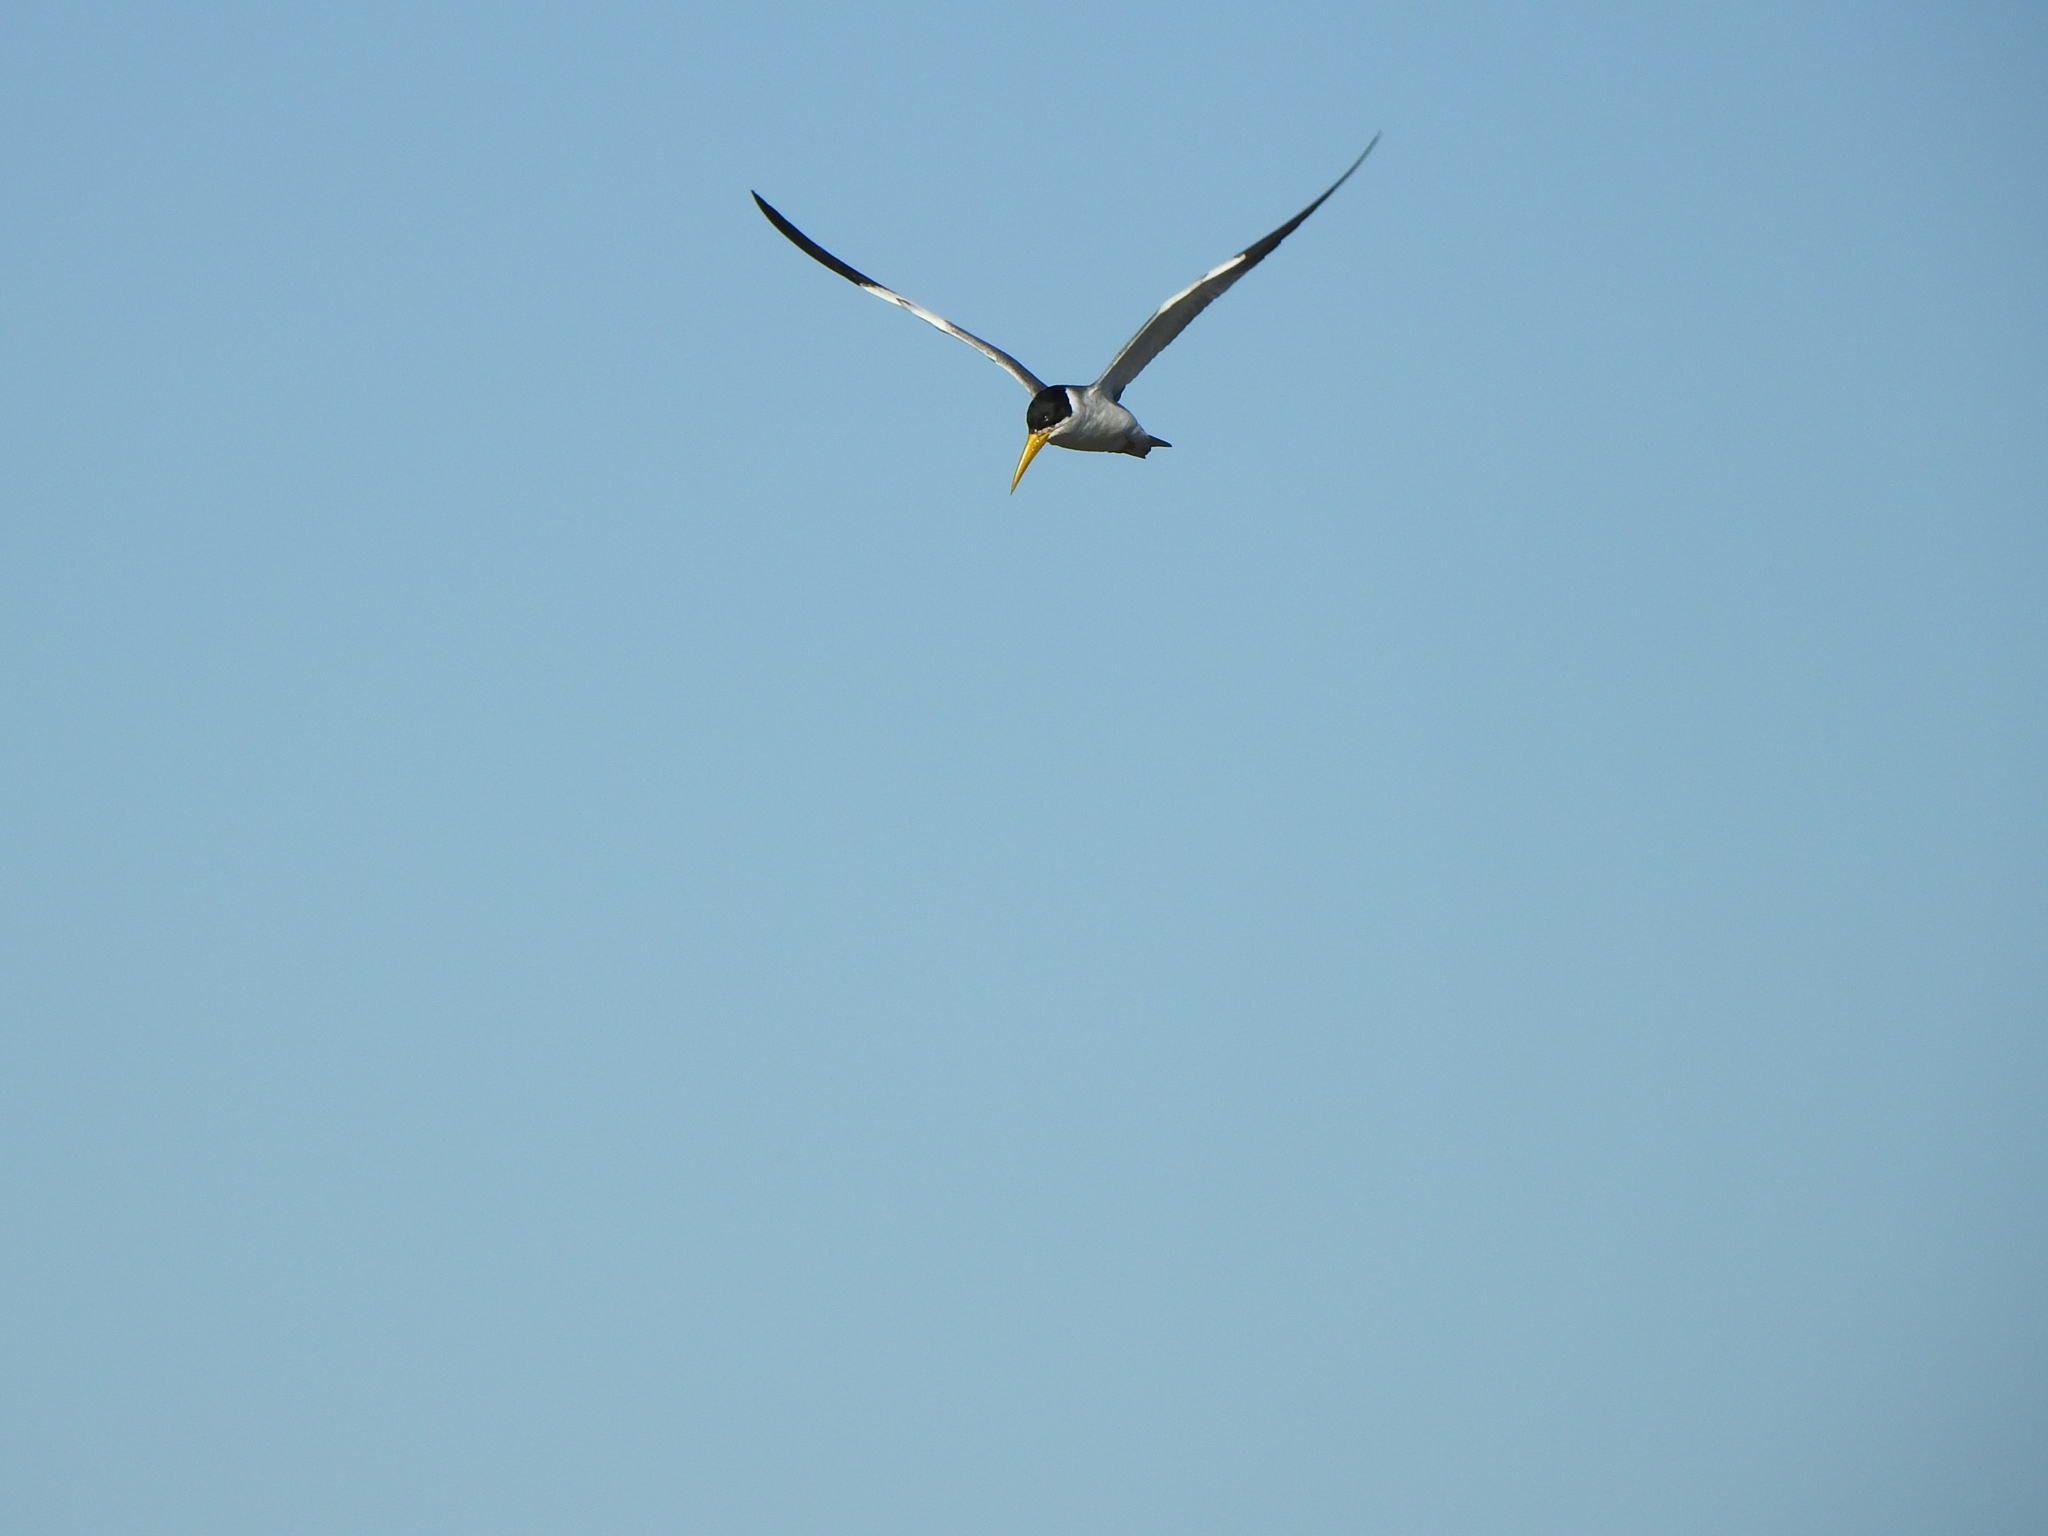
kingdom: Animalia
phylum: Chordata
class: Aves
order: Charadriiformes
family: Laridae
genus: Phaetusa
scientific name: Phaetusa simplex
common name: Large-billed tern
